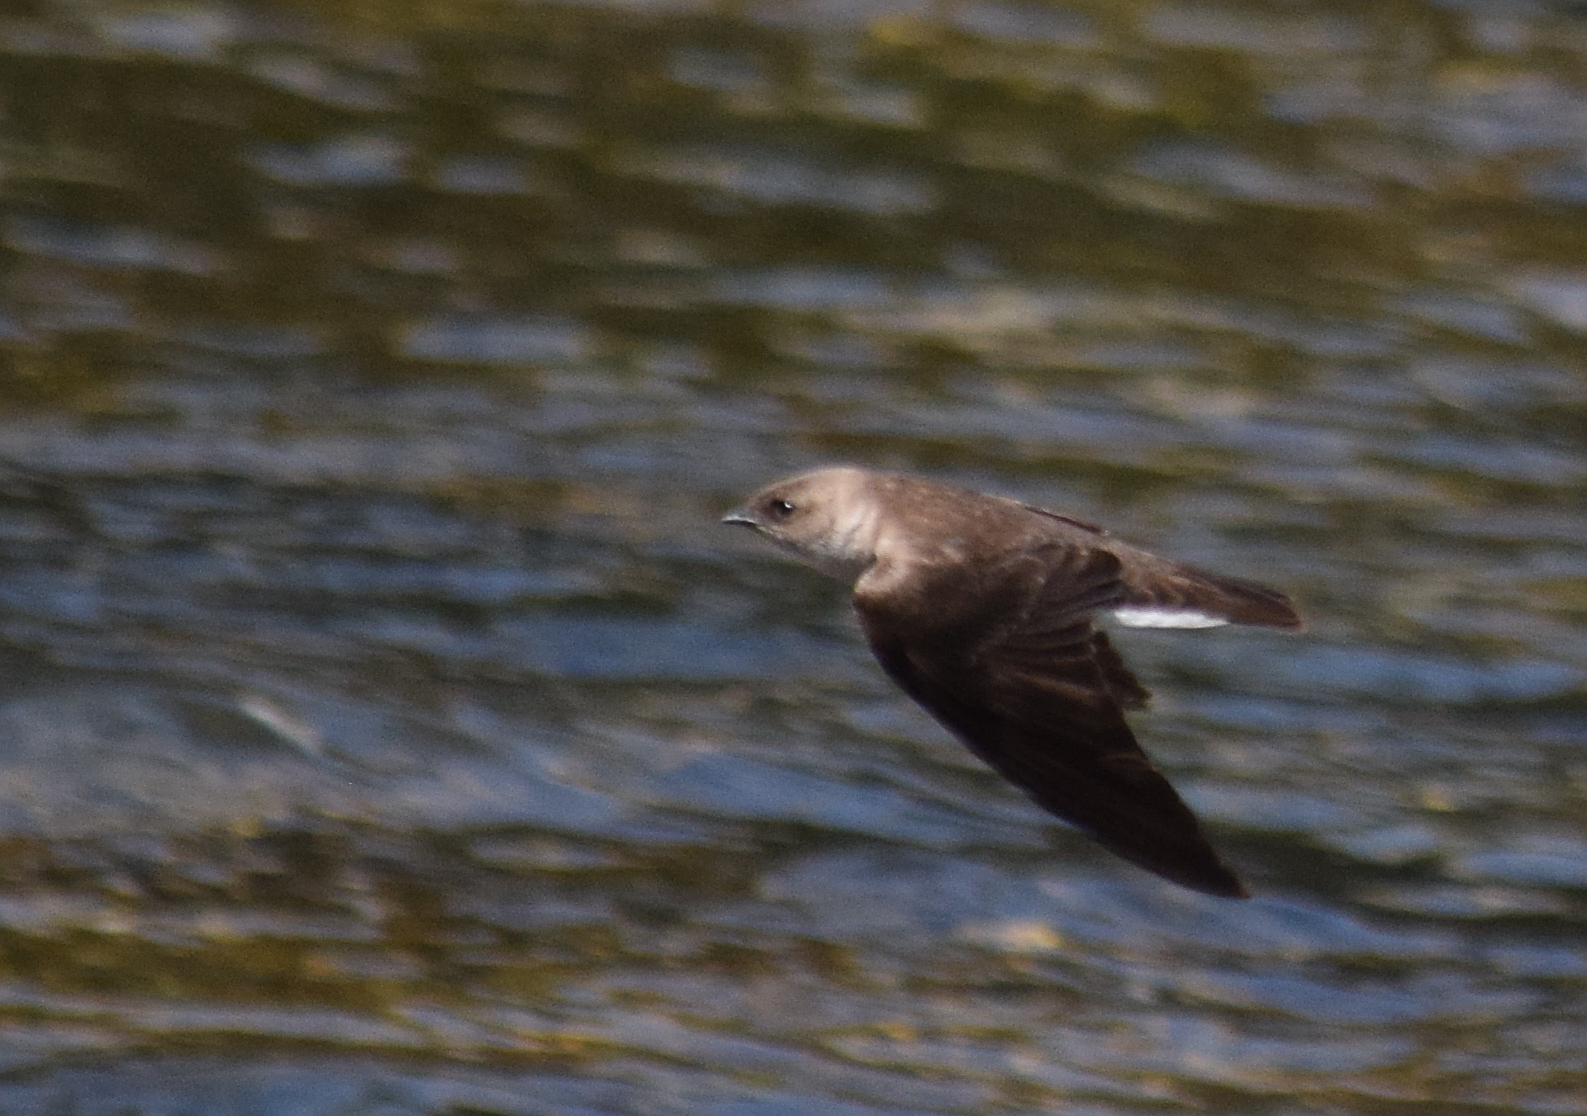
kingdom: Animalia
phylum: Chordata
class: Aves
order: Passeriformes
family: Hirundinidae
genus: Stelgidopteryx
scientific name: Stelgidopteryx serripennis
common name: Northern rough-winged swallow
